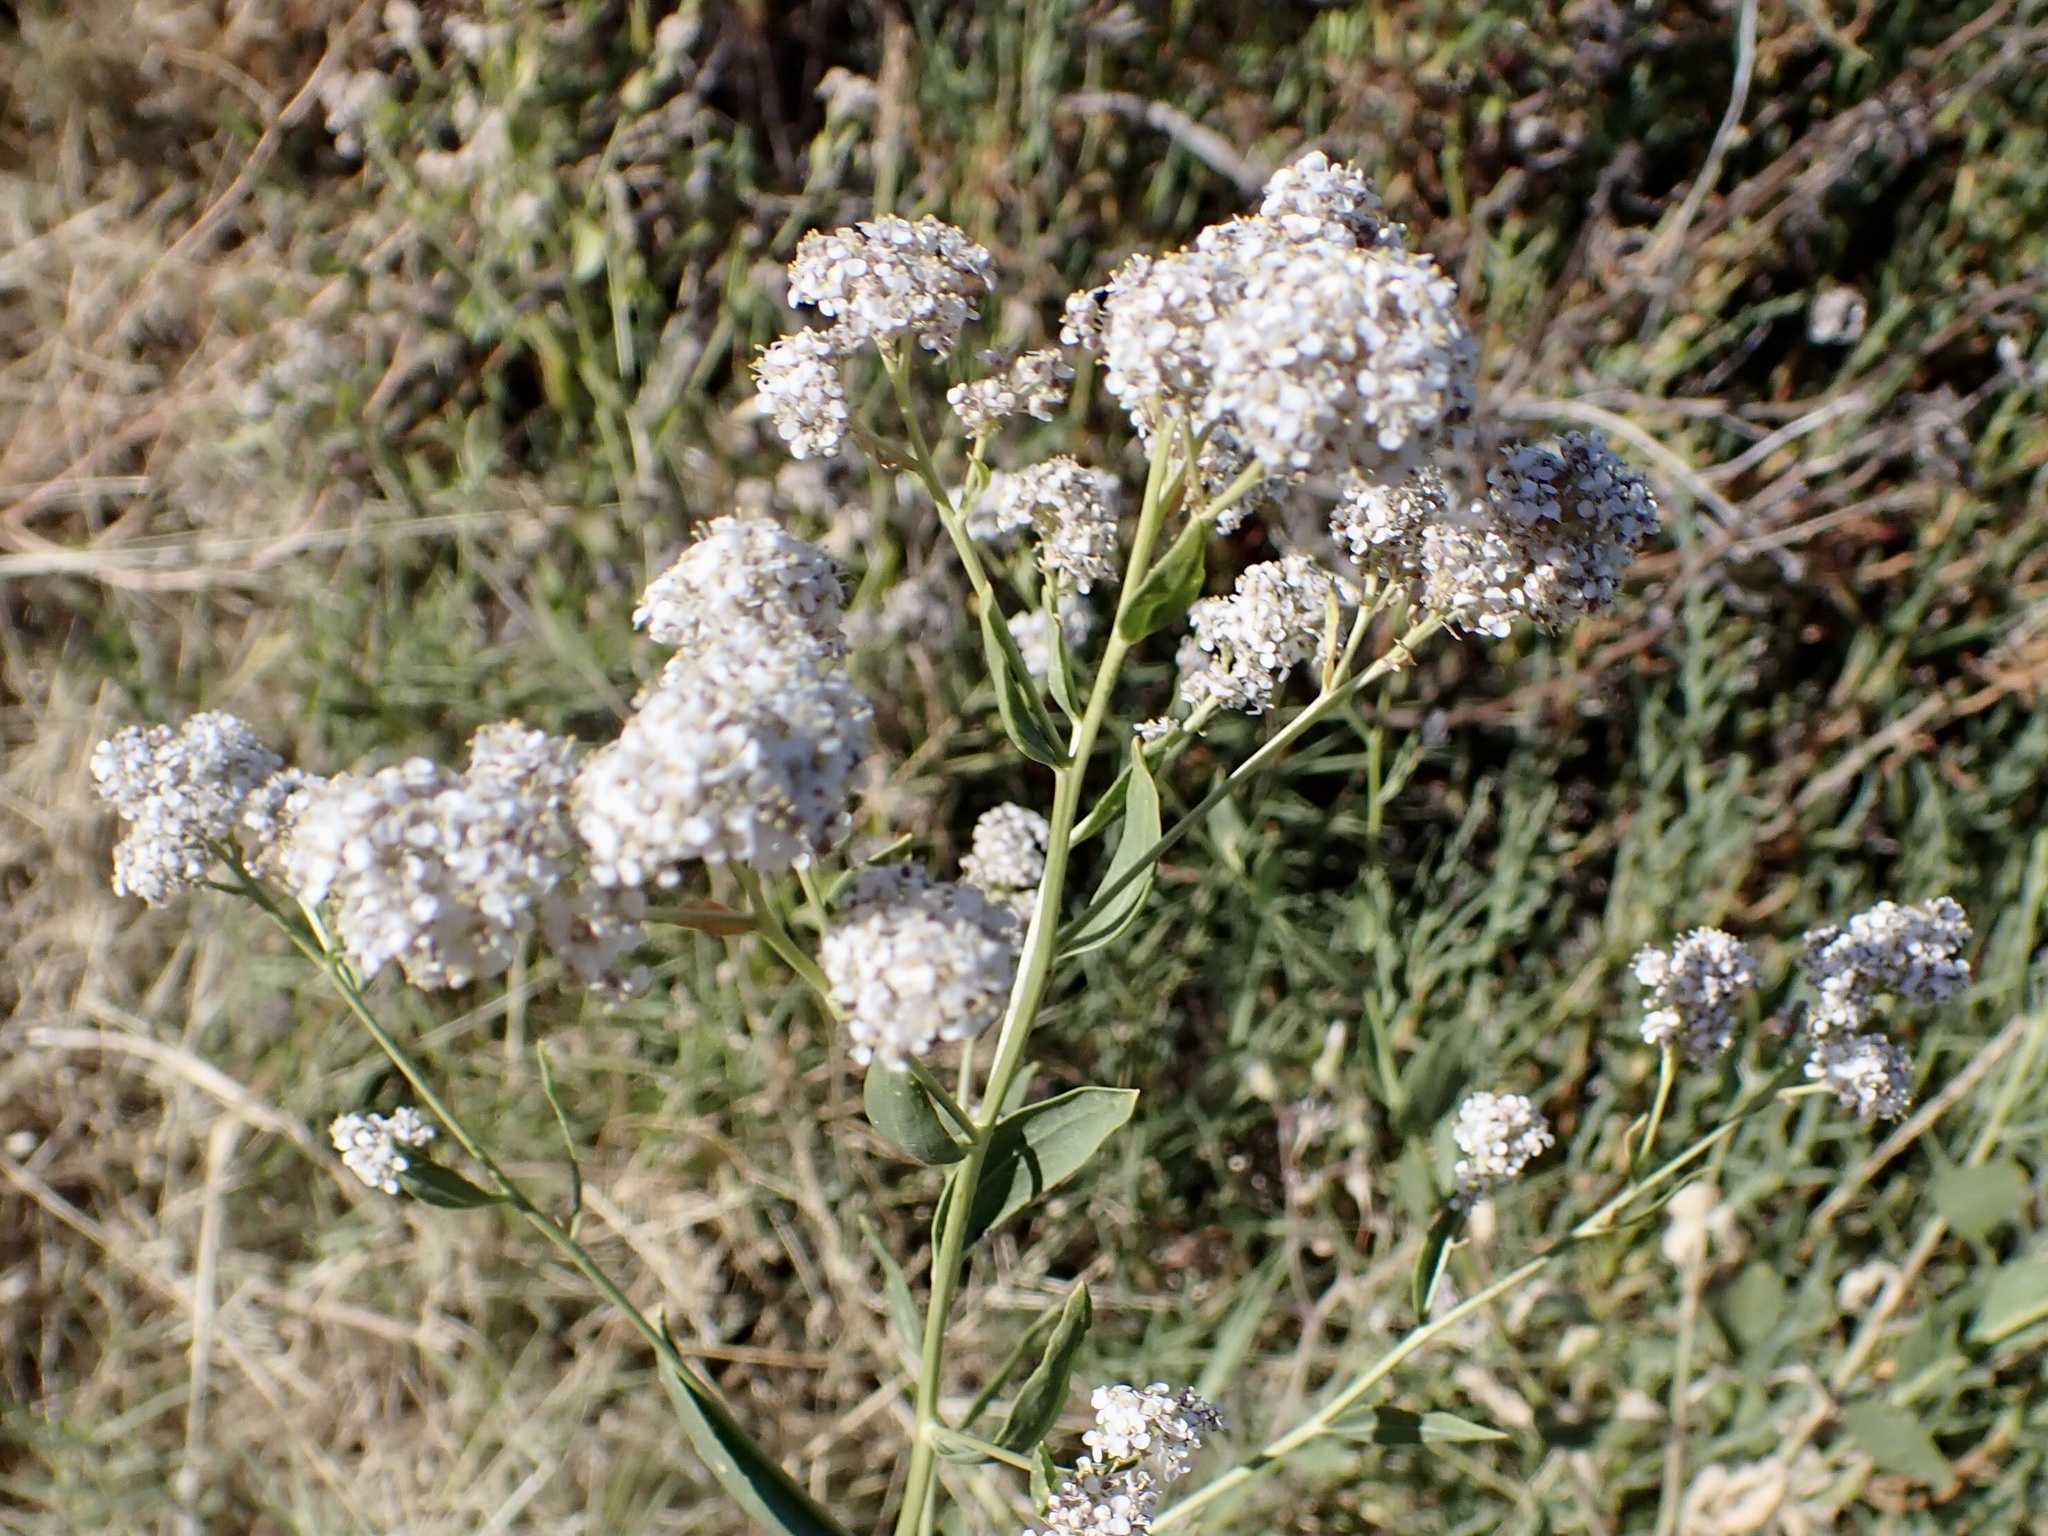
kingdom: Plantae
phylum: Tracheophyta
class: Magnoliopsida
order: Brassicales
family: Brassicaceae
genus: Lepidium
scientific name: Lepidium latifolium
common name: Dittander
